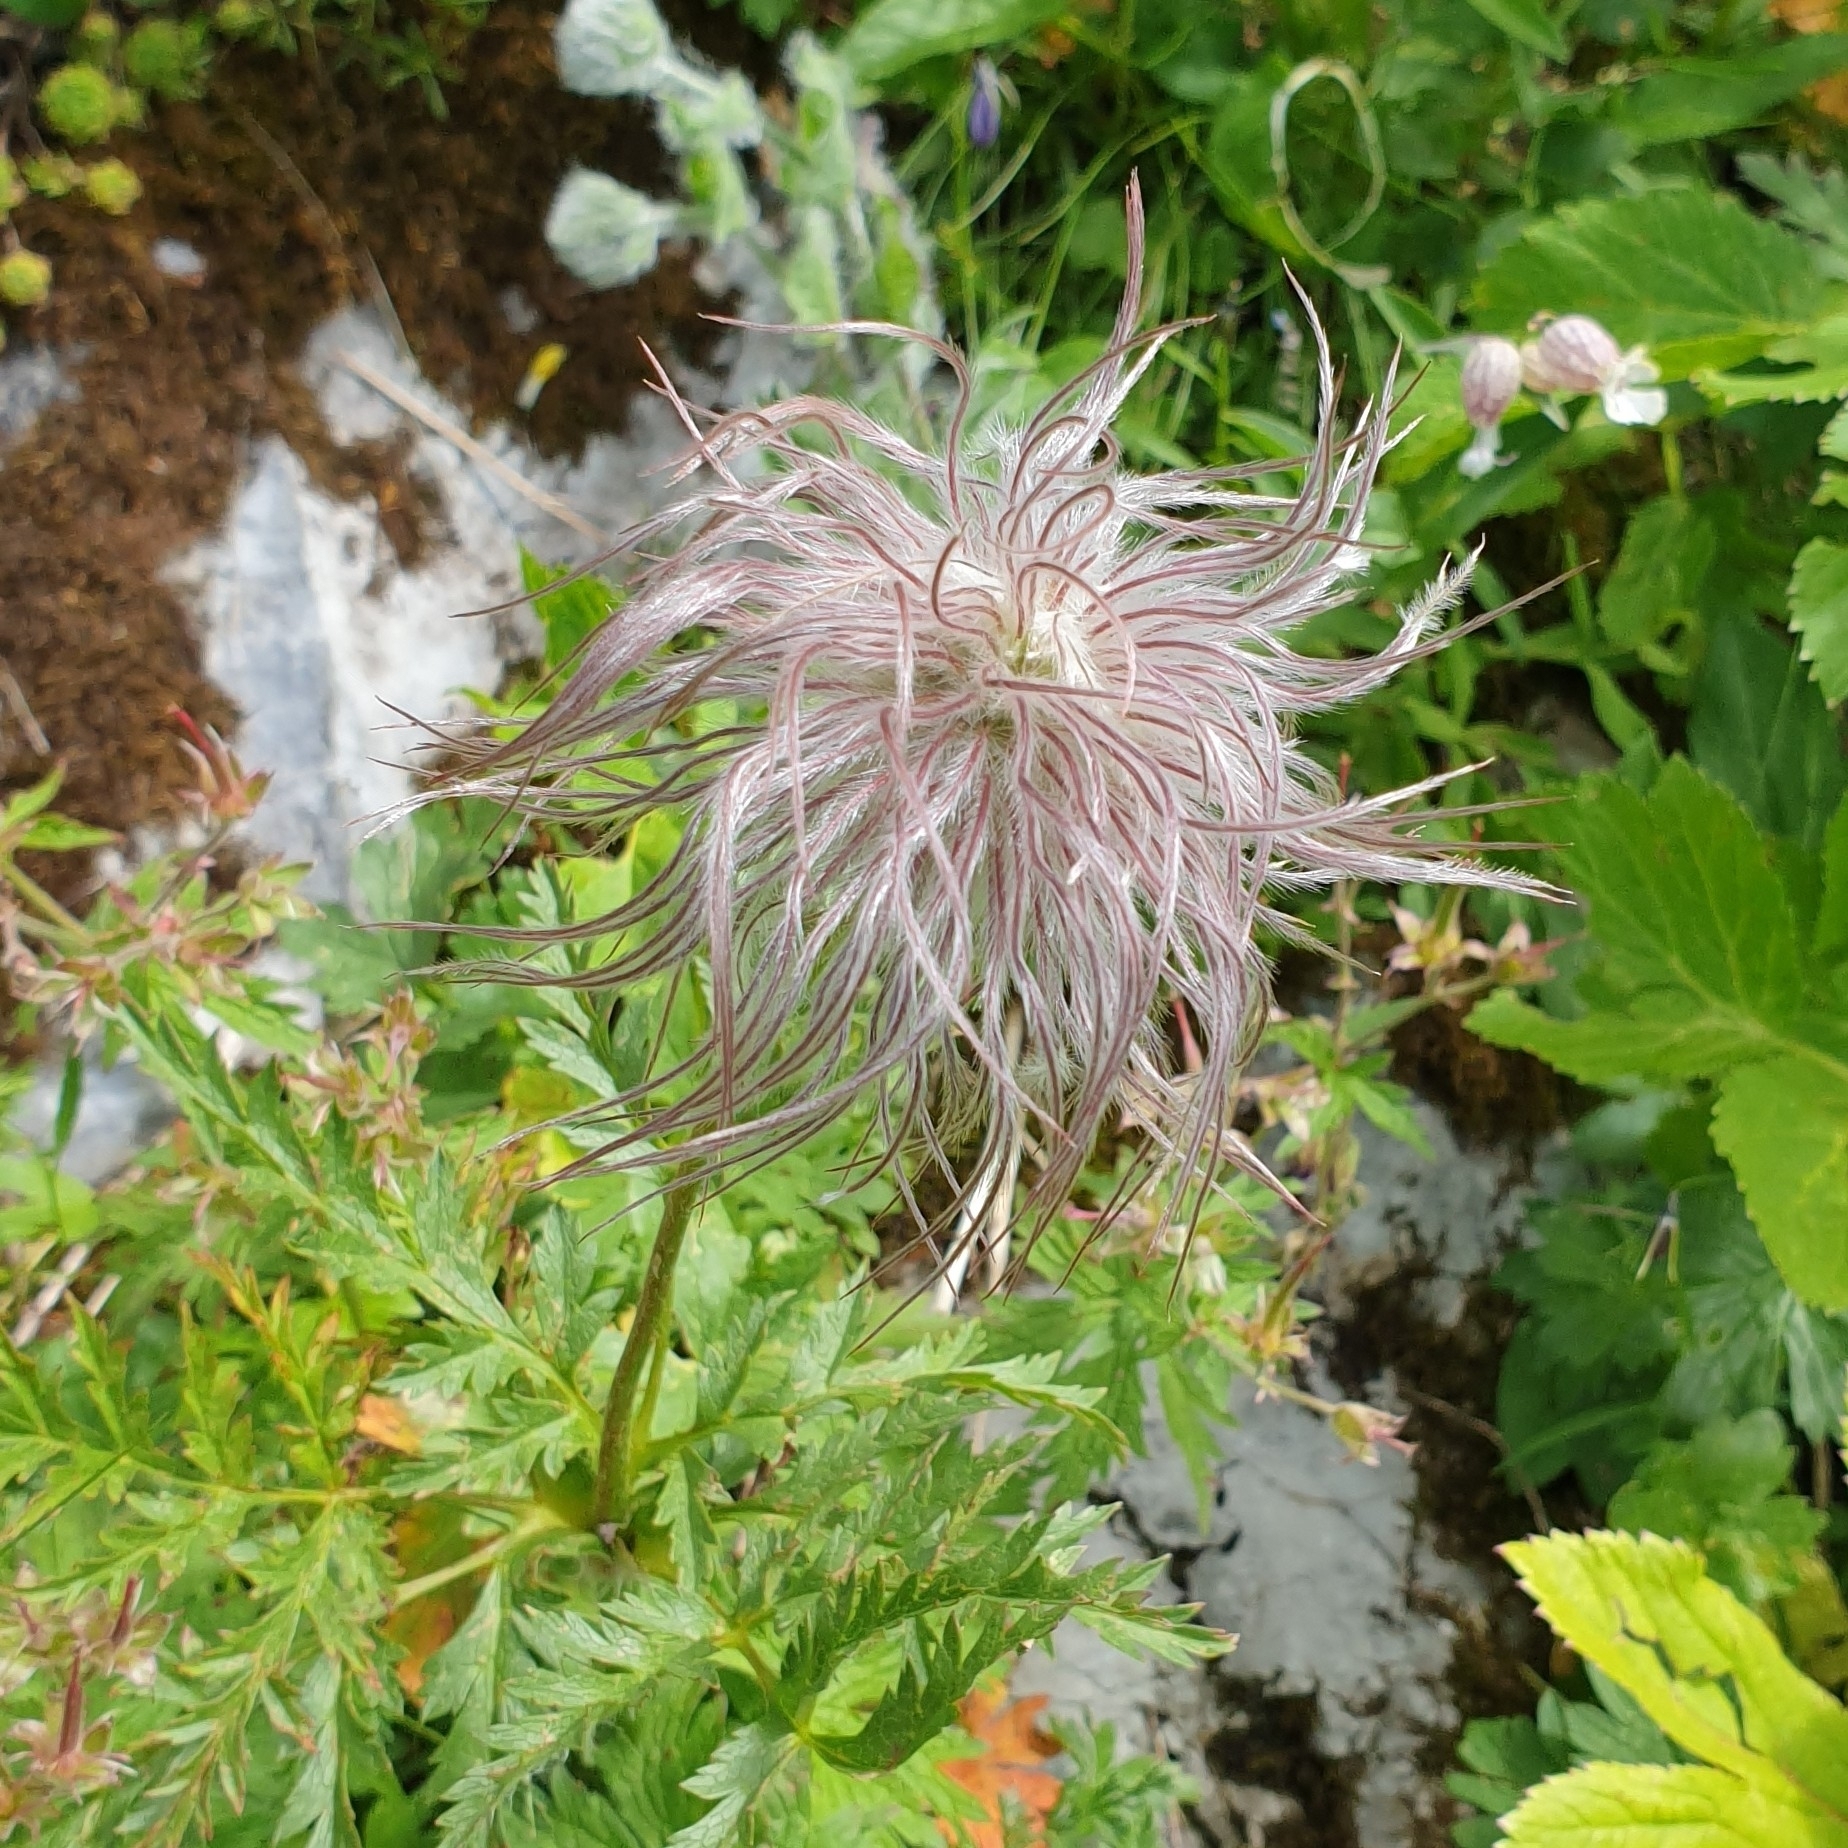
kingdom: Plantae
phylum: Tracheophyta
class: Magnoliopsida
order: Ranunculales
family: Ranunculaceae
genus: Pulsatilla
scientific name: Pulsatilla alpina
